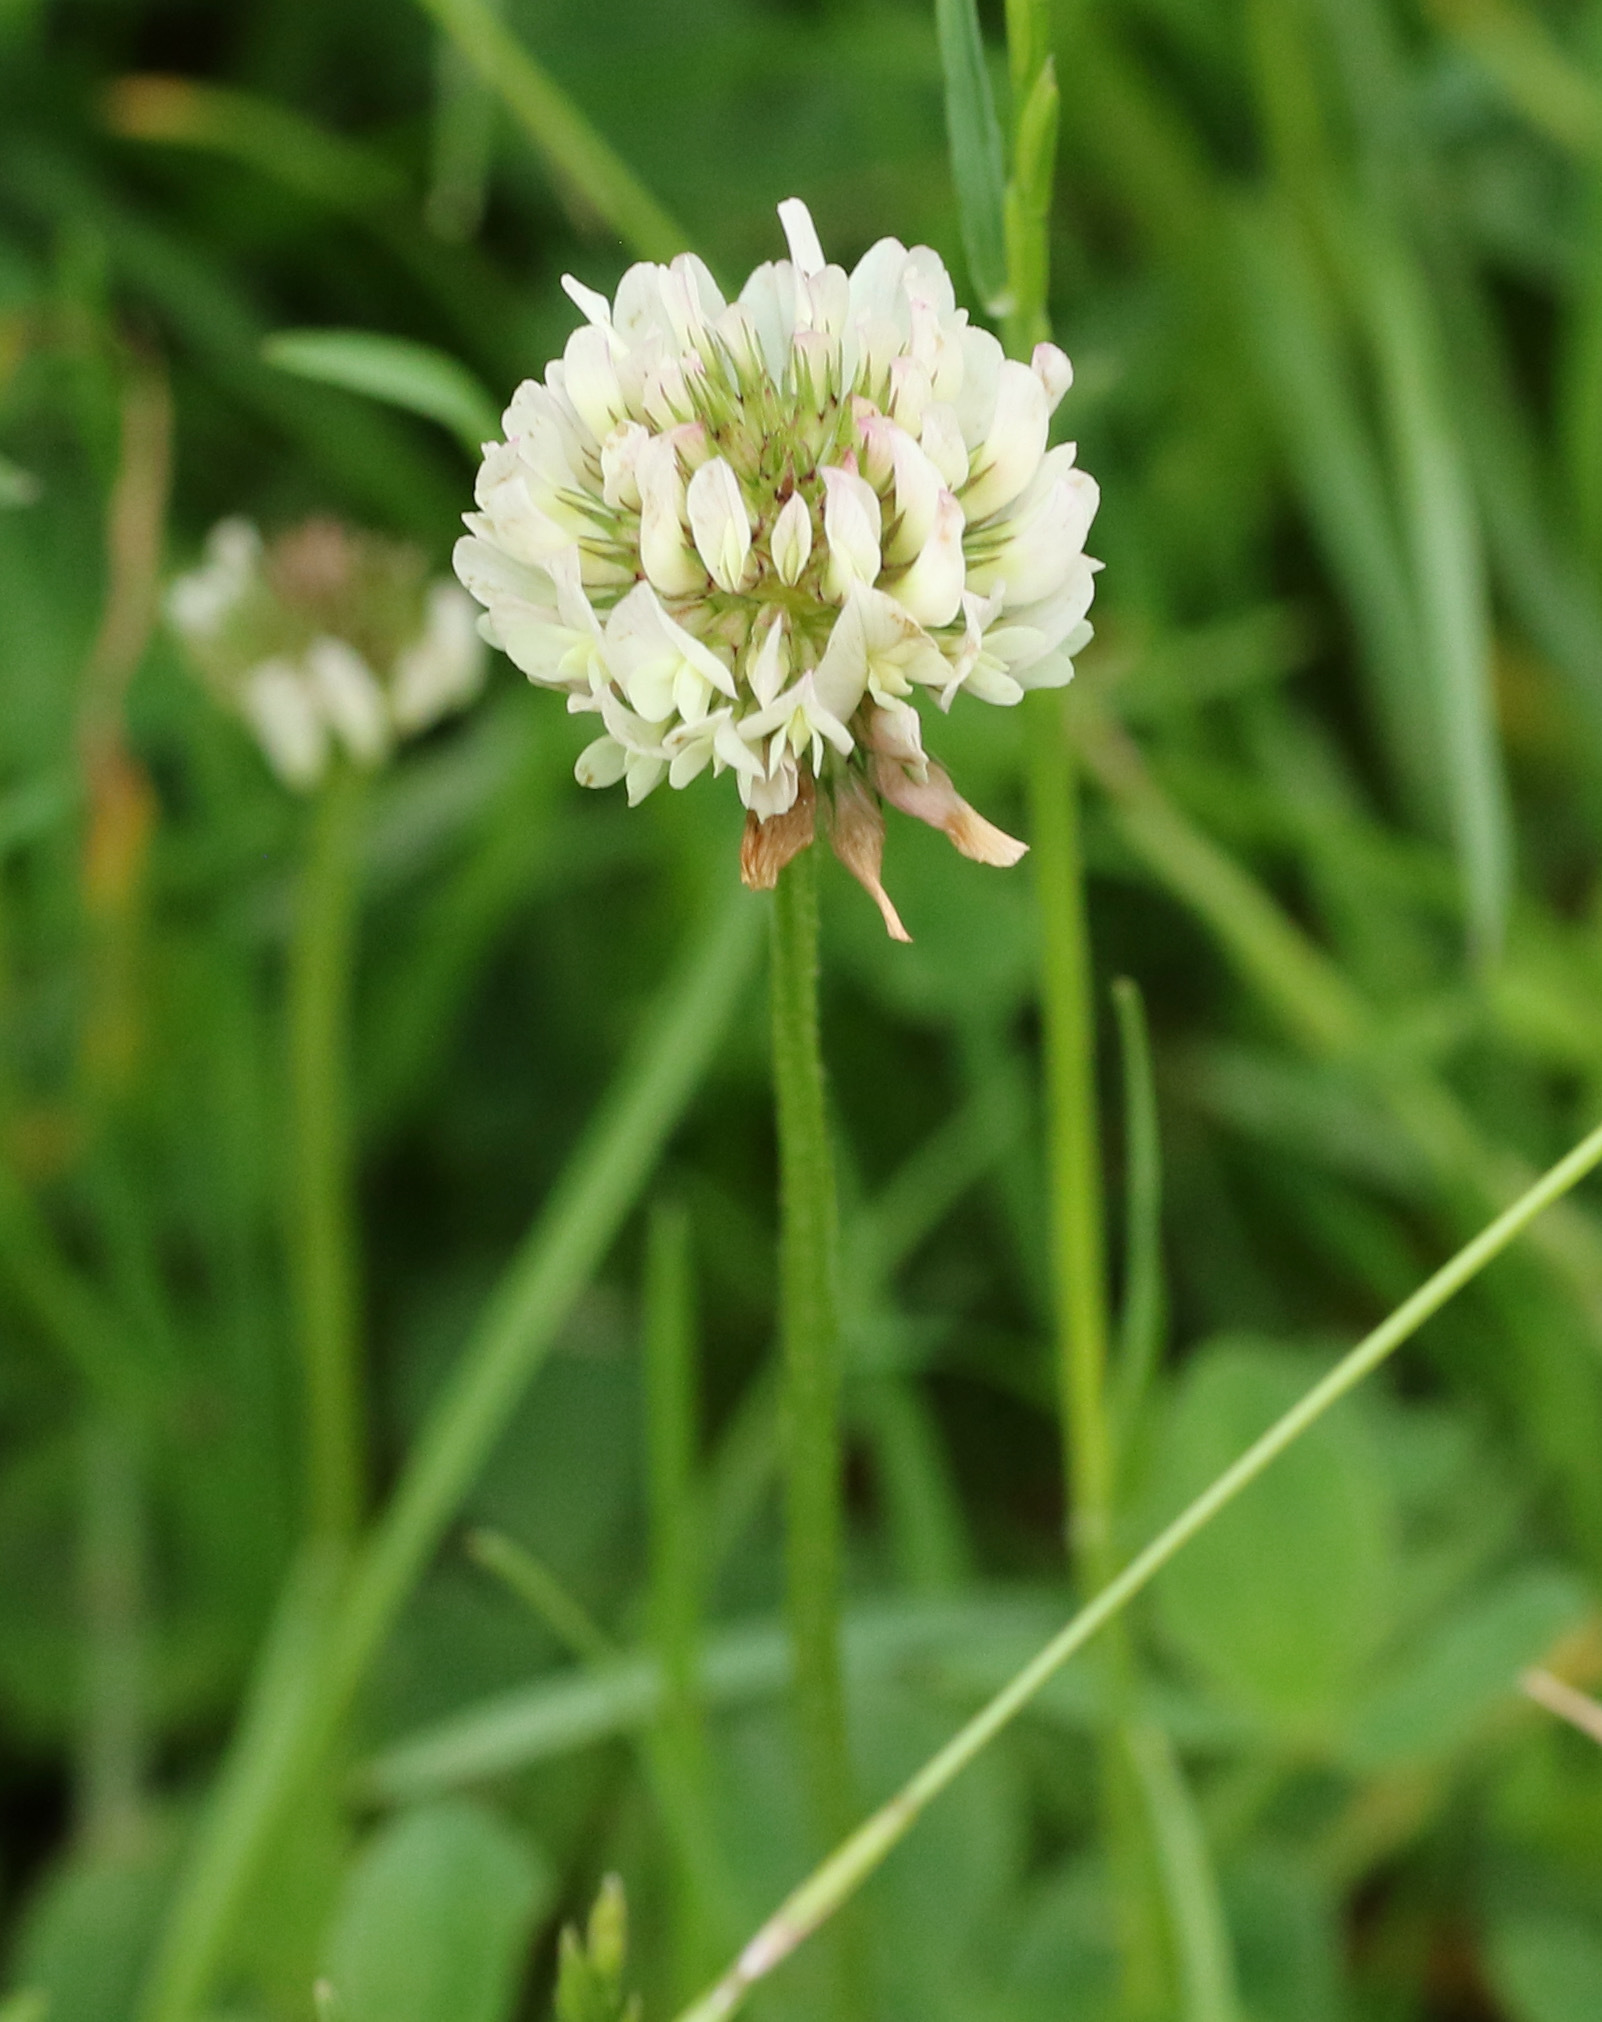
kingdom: Plantae
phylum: Tracheophyta
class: Magnoliopsida
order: Fabales
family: Fabaceae
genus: Trifolium
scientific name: Trifolium repens
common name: White clover
